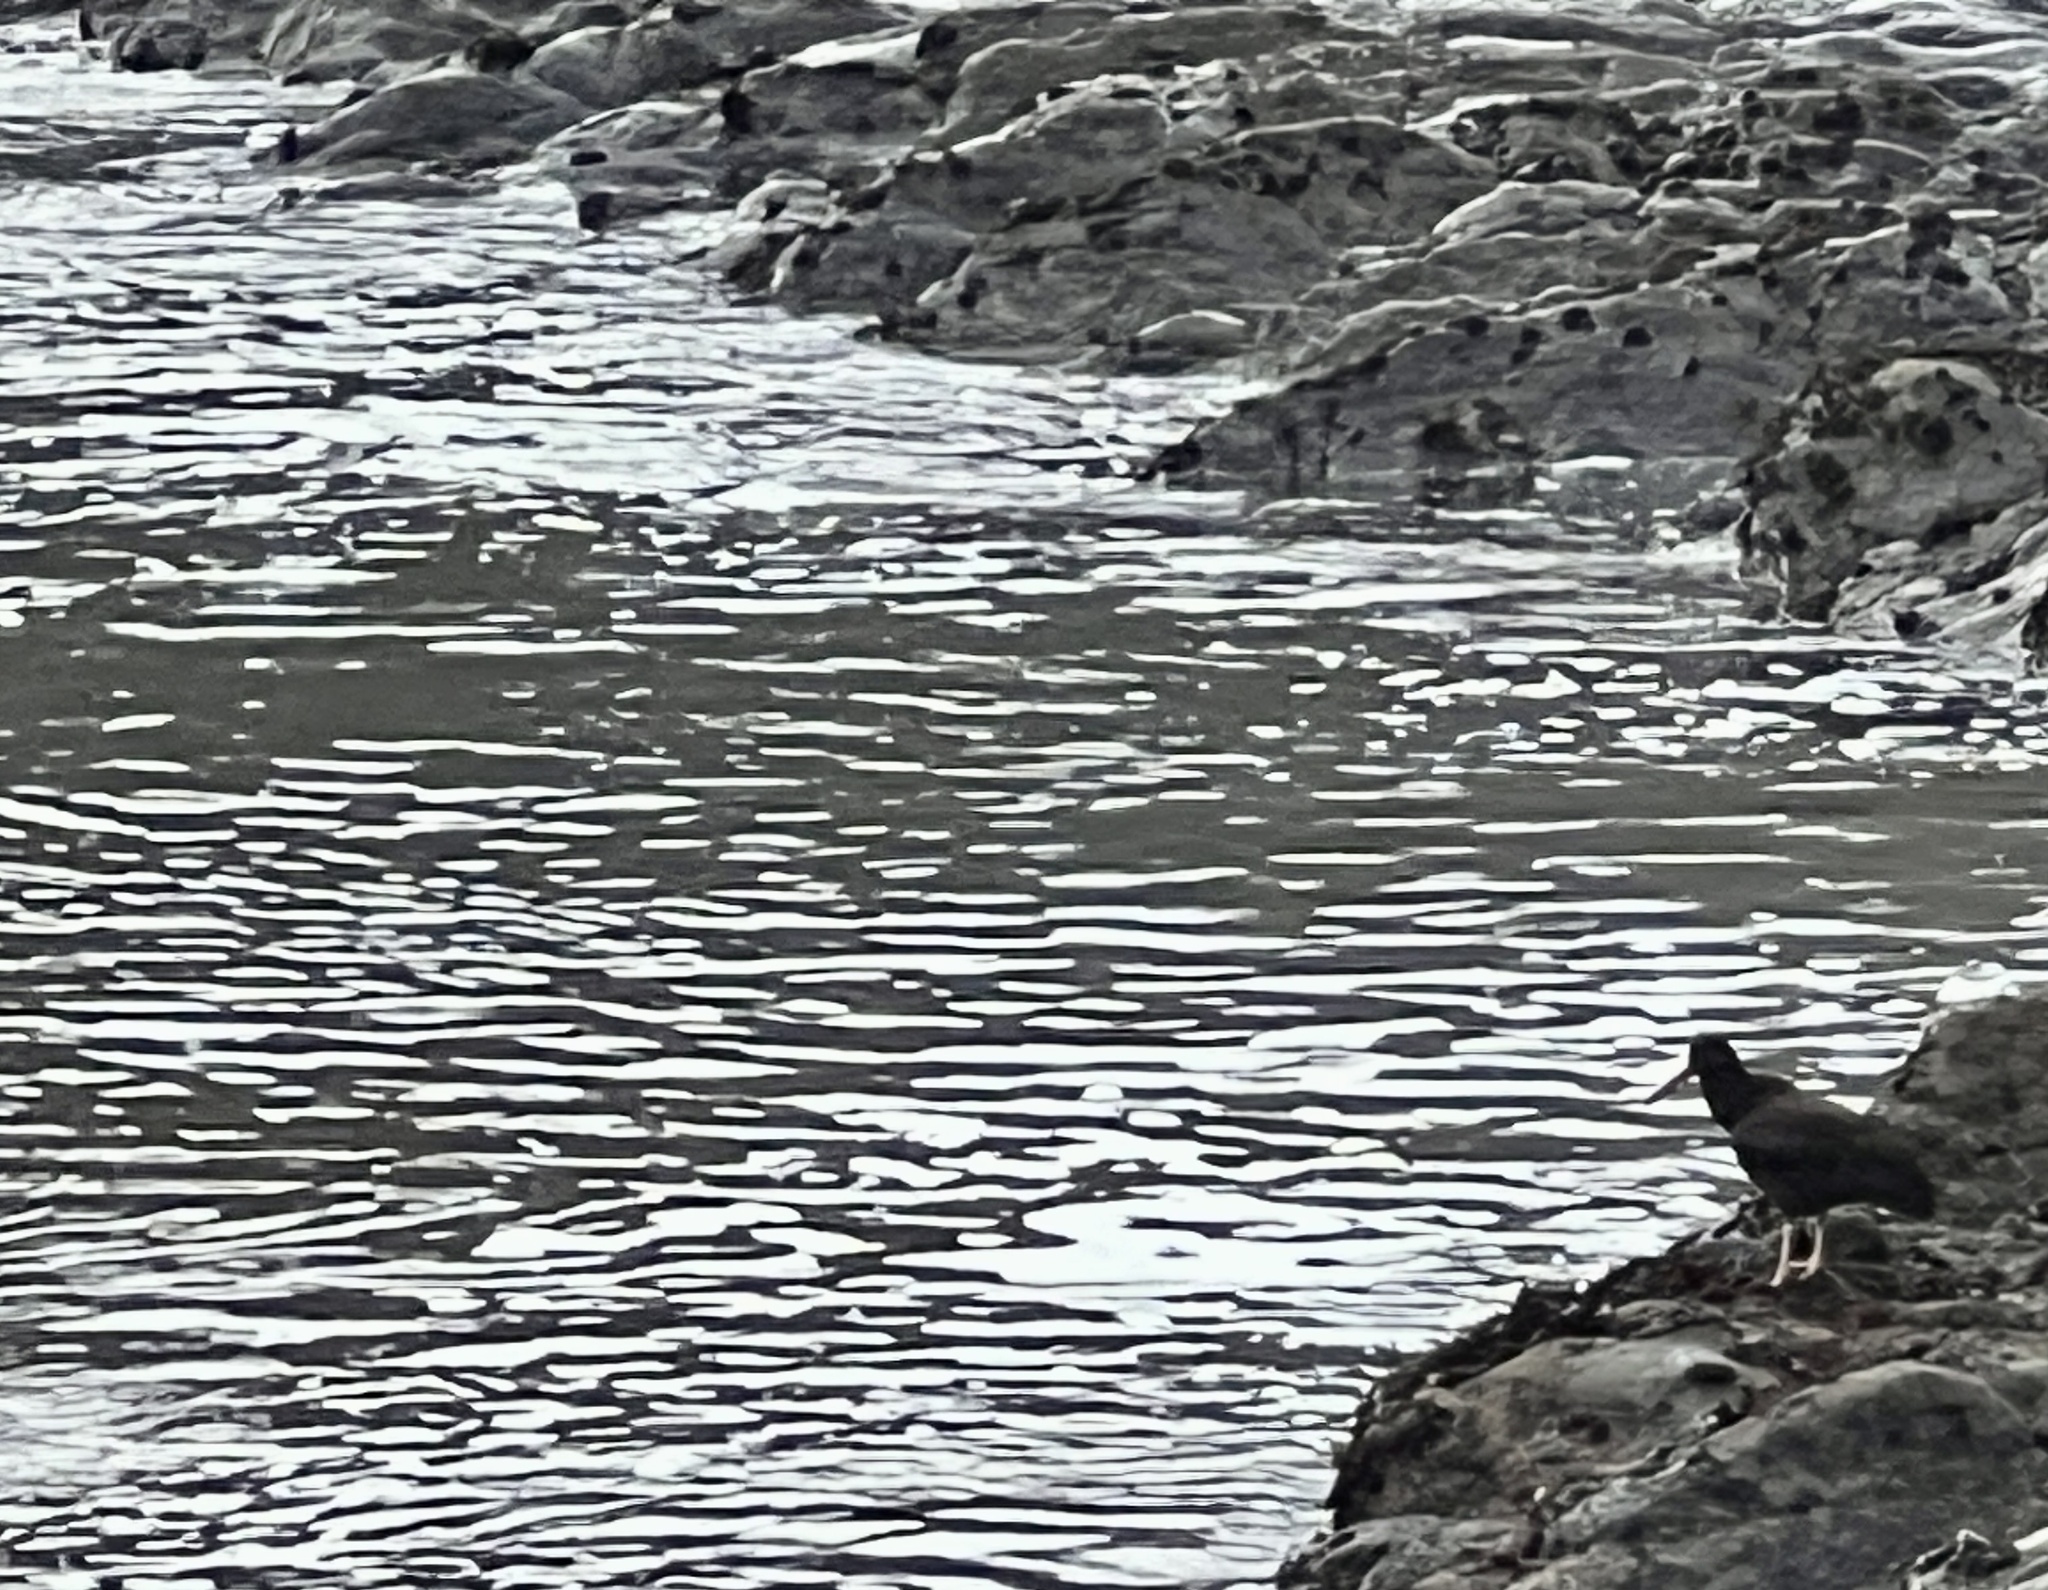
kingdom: Animalia
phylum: Chordata
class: Aves
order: Charadriiformes
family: Haematopodidae
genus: Haematopus
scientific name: Haematopus bachmani
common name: Black oystercatcher
